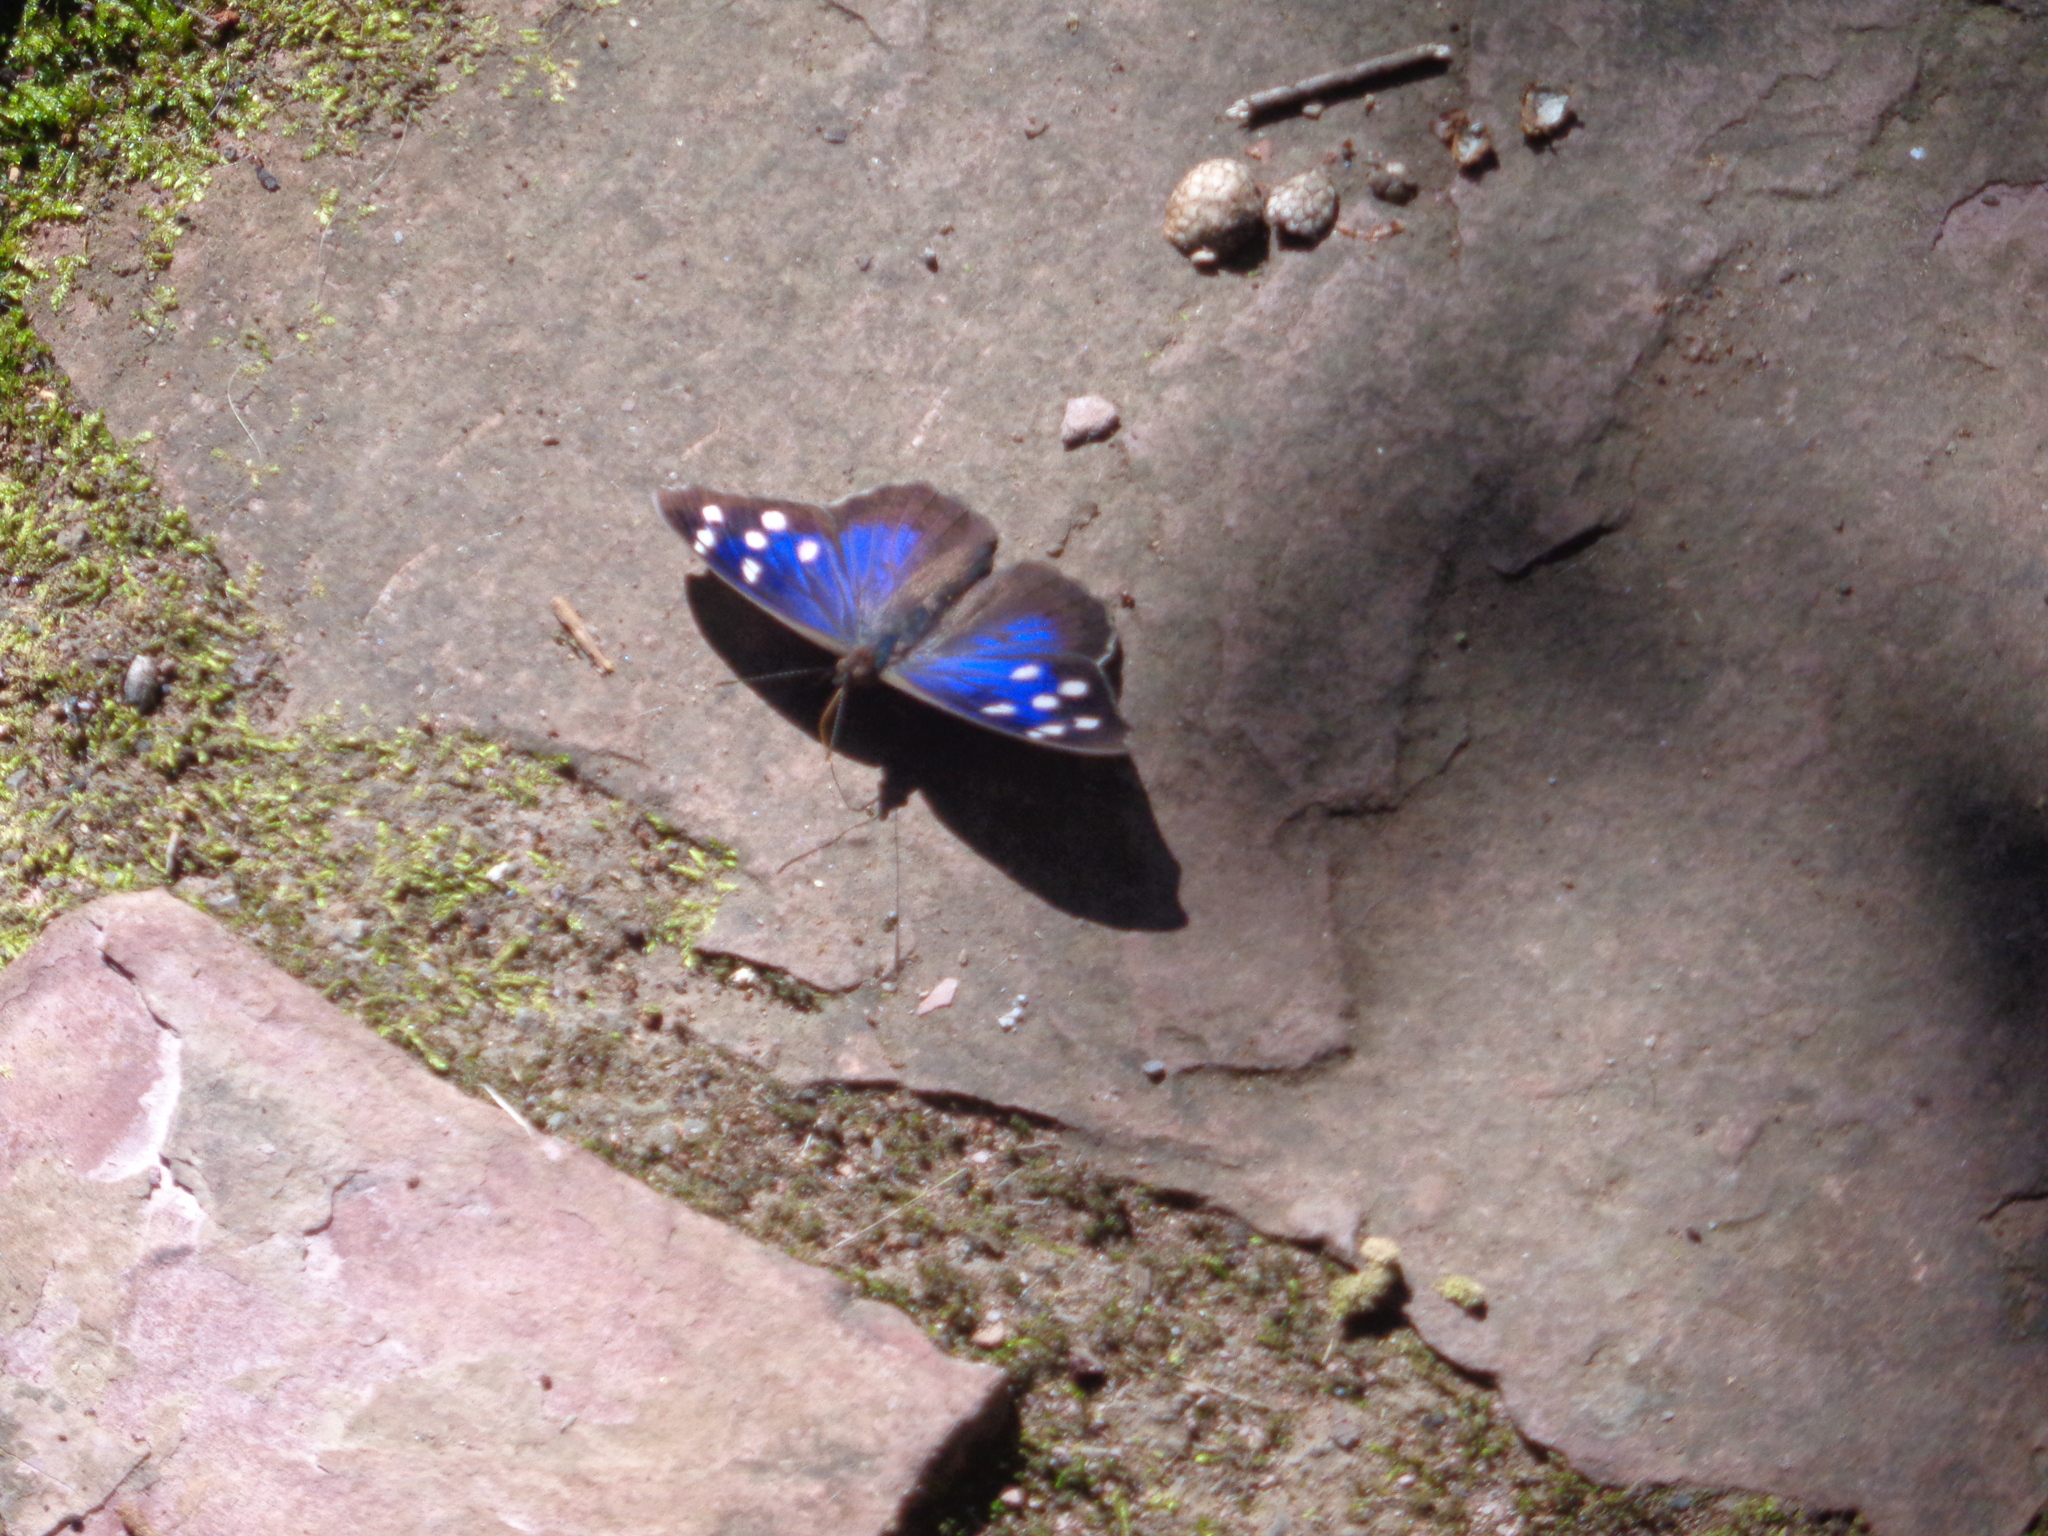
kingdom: Animalia
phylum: Arthropoda
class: Insecta
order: Lepidoptera
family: Nymphalidae
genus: Eunica
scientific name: Eunica tatila
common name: Florida purplewing
